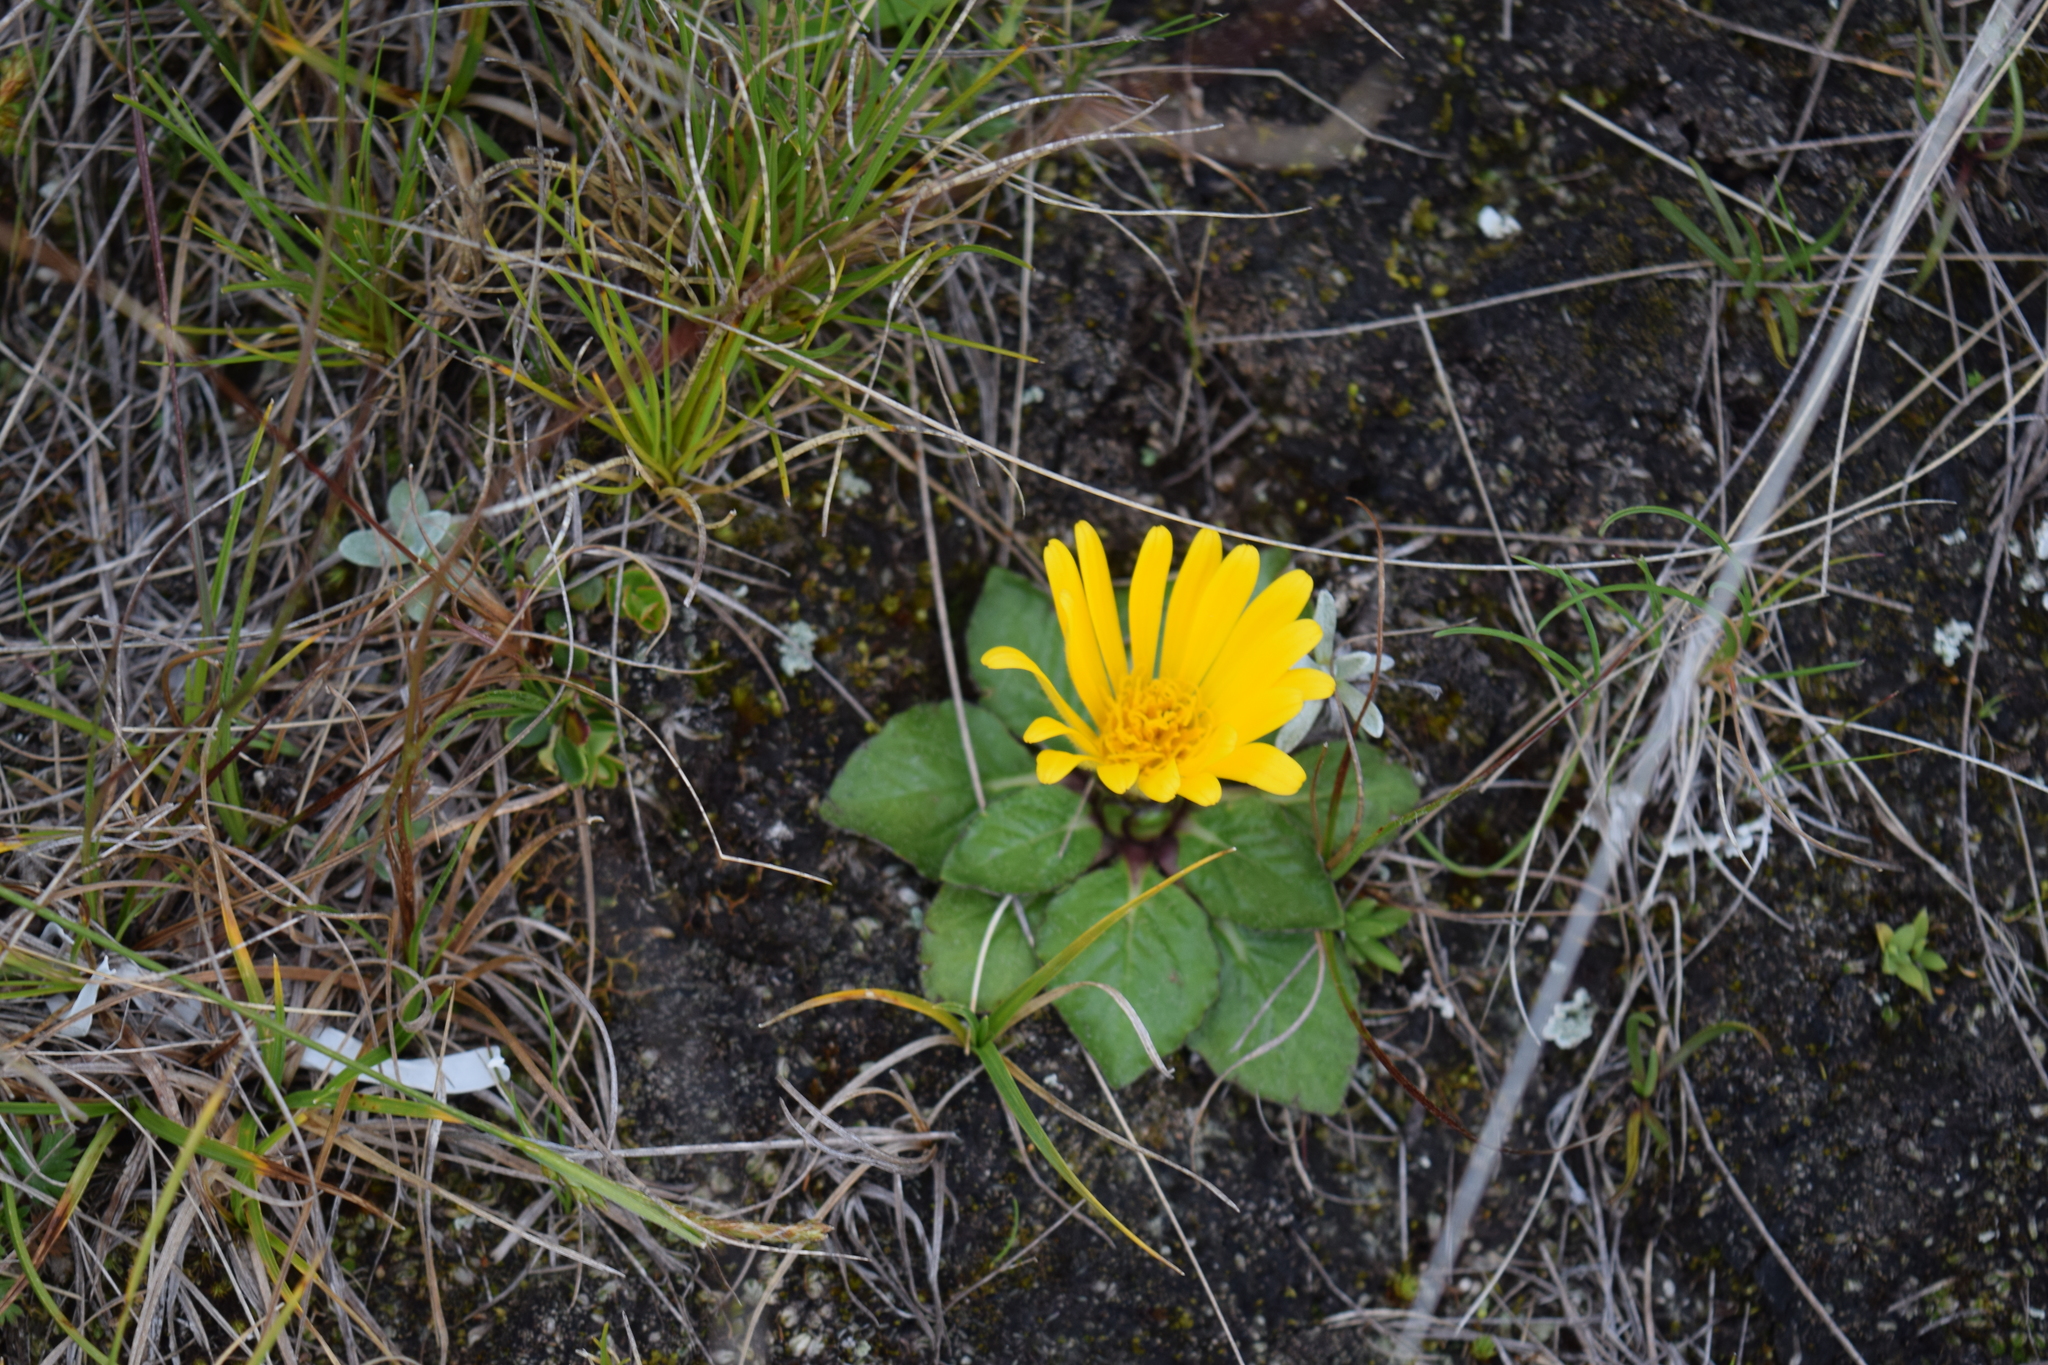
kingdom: Plantae
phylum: Tracheophyta
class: Magnoliopsida
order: Asterales
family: Asteraceae
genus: Paranephelius
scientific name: Paranephelius ovatus
